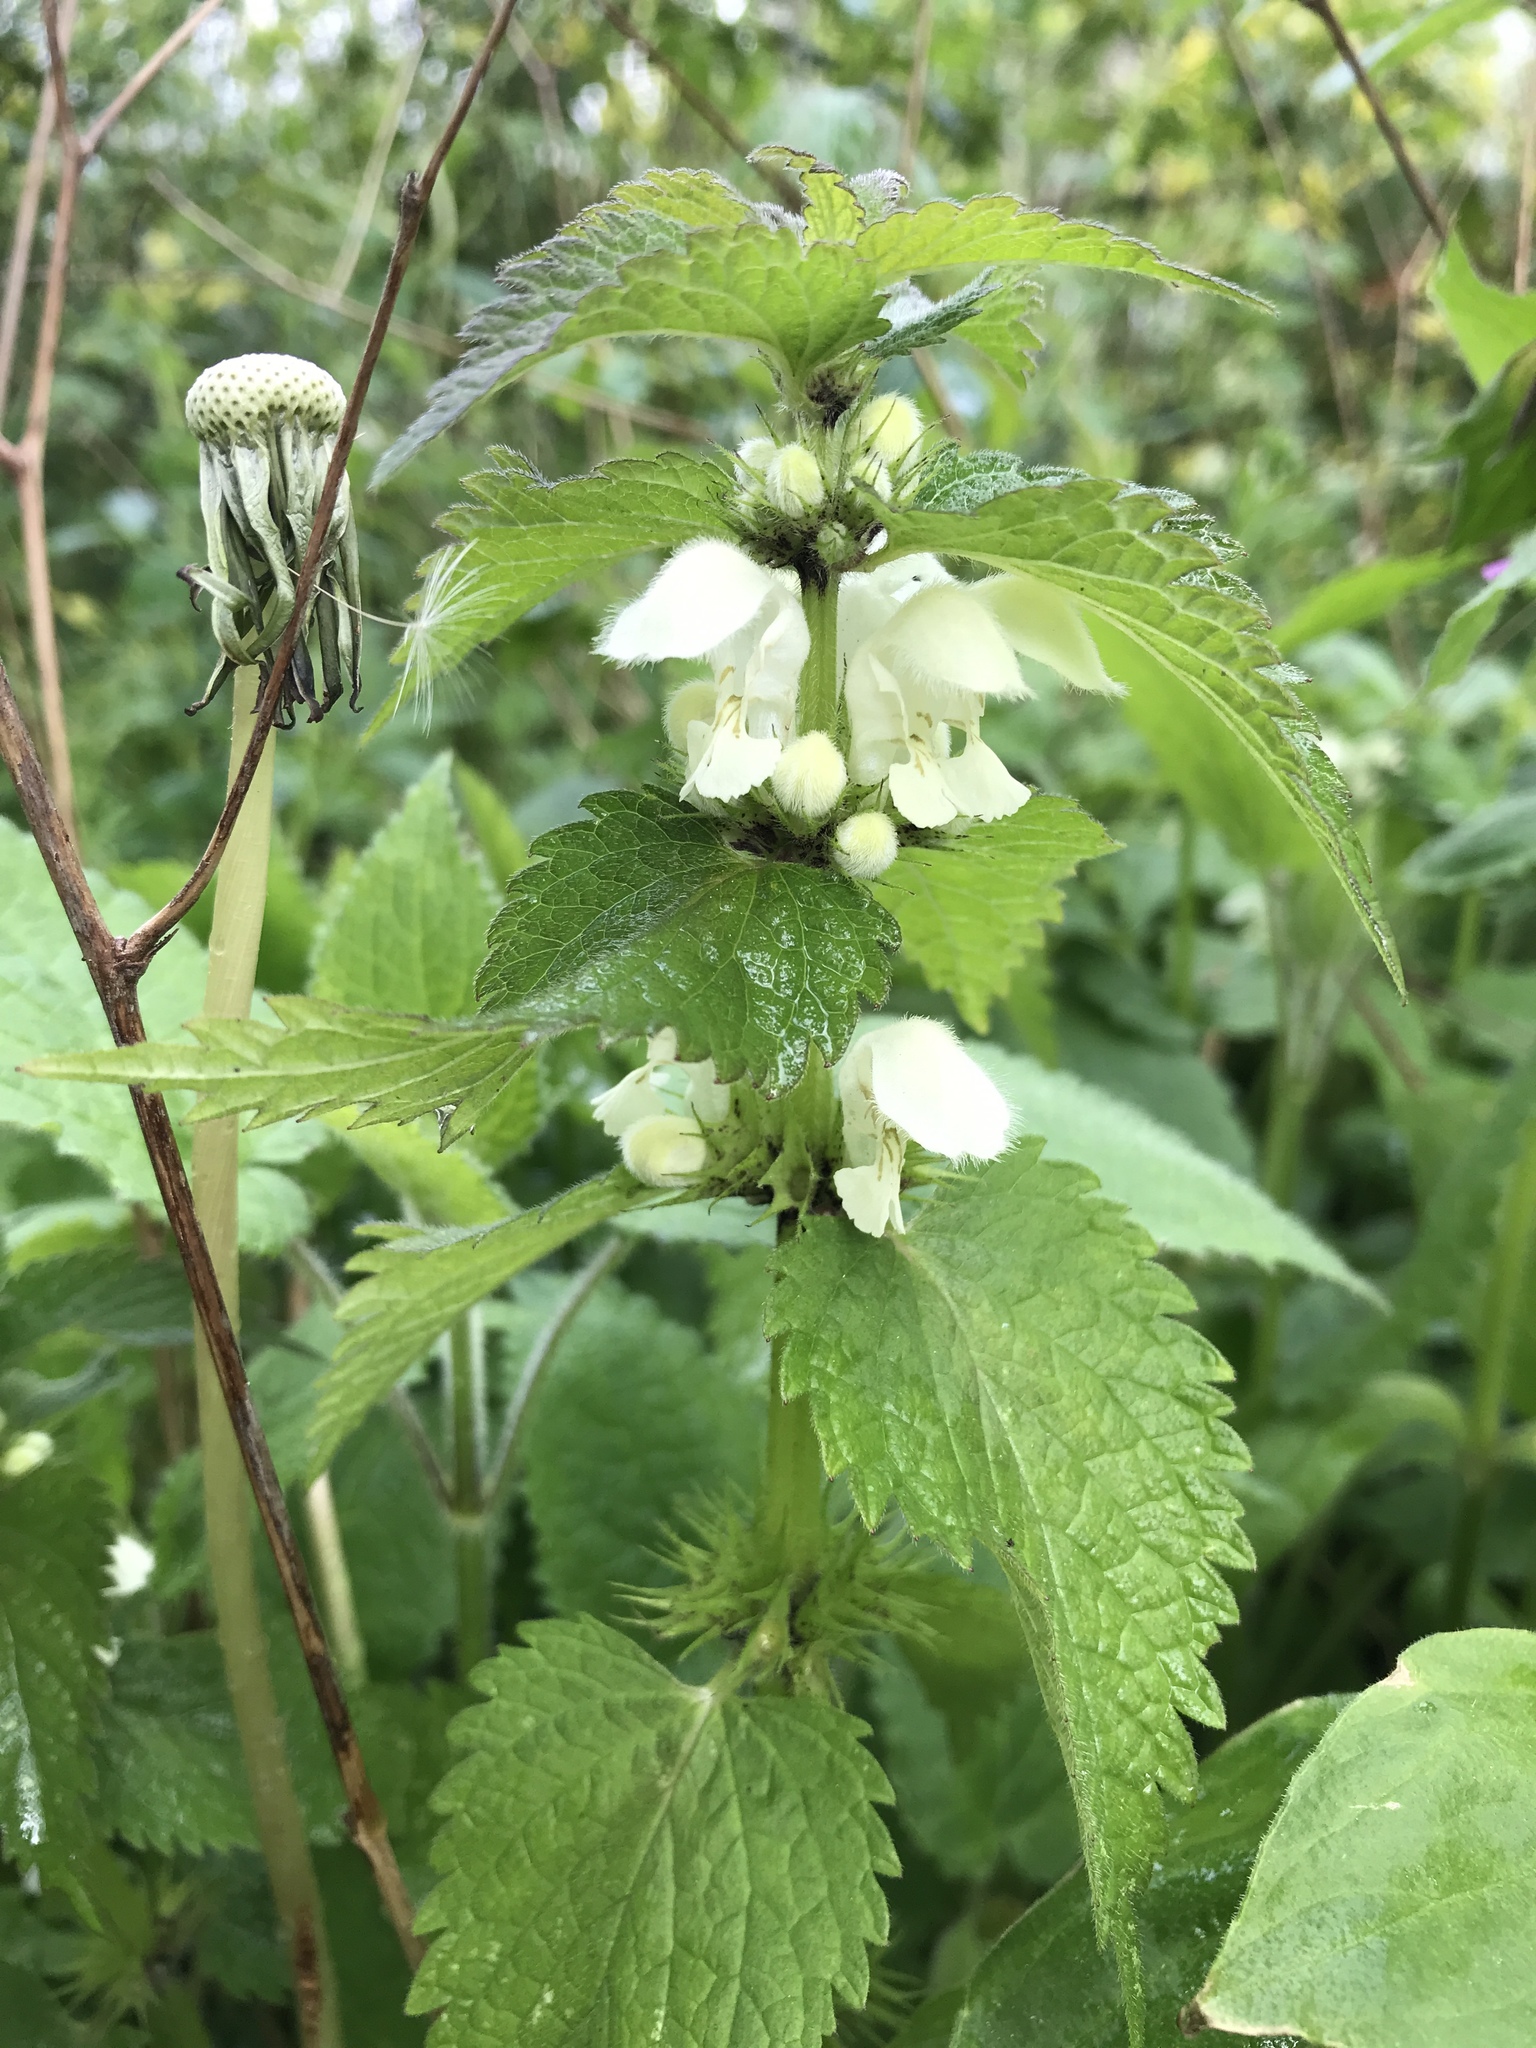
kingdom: Plantae
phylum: Tracheophyta
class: Magnoliopsida
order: Lamiales
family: Lamiaceae
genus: Lamium
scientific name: Lamium album
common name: White dead-nettle
